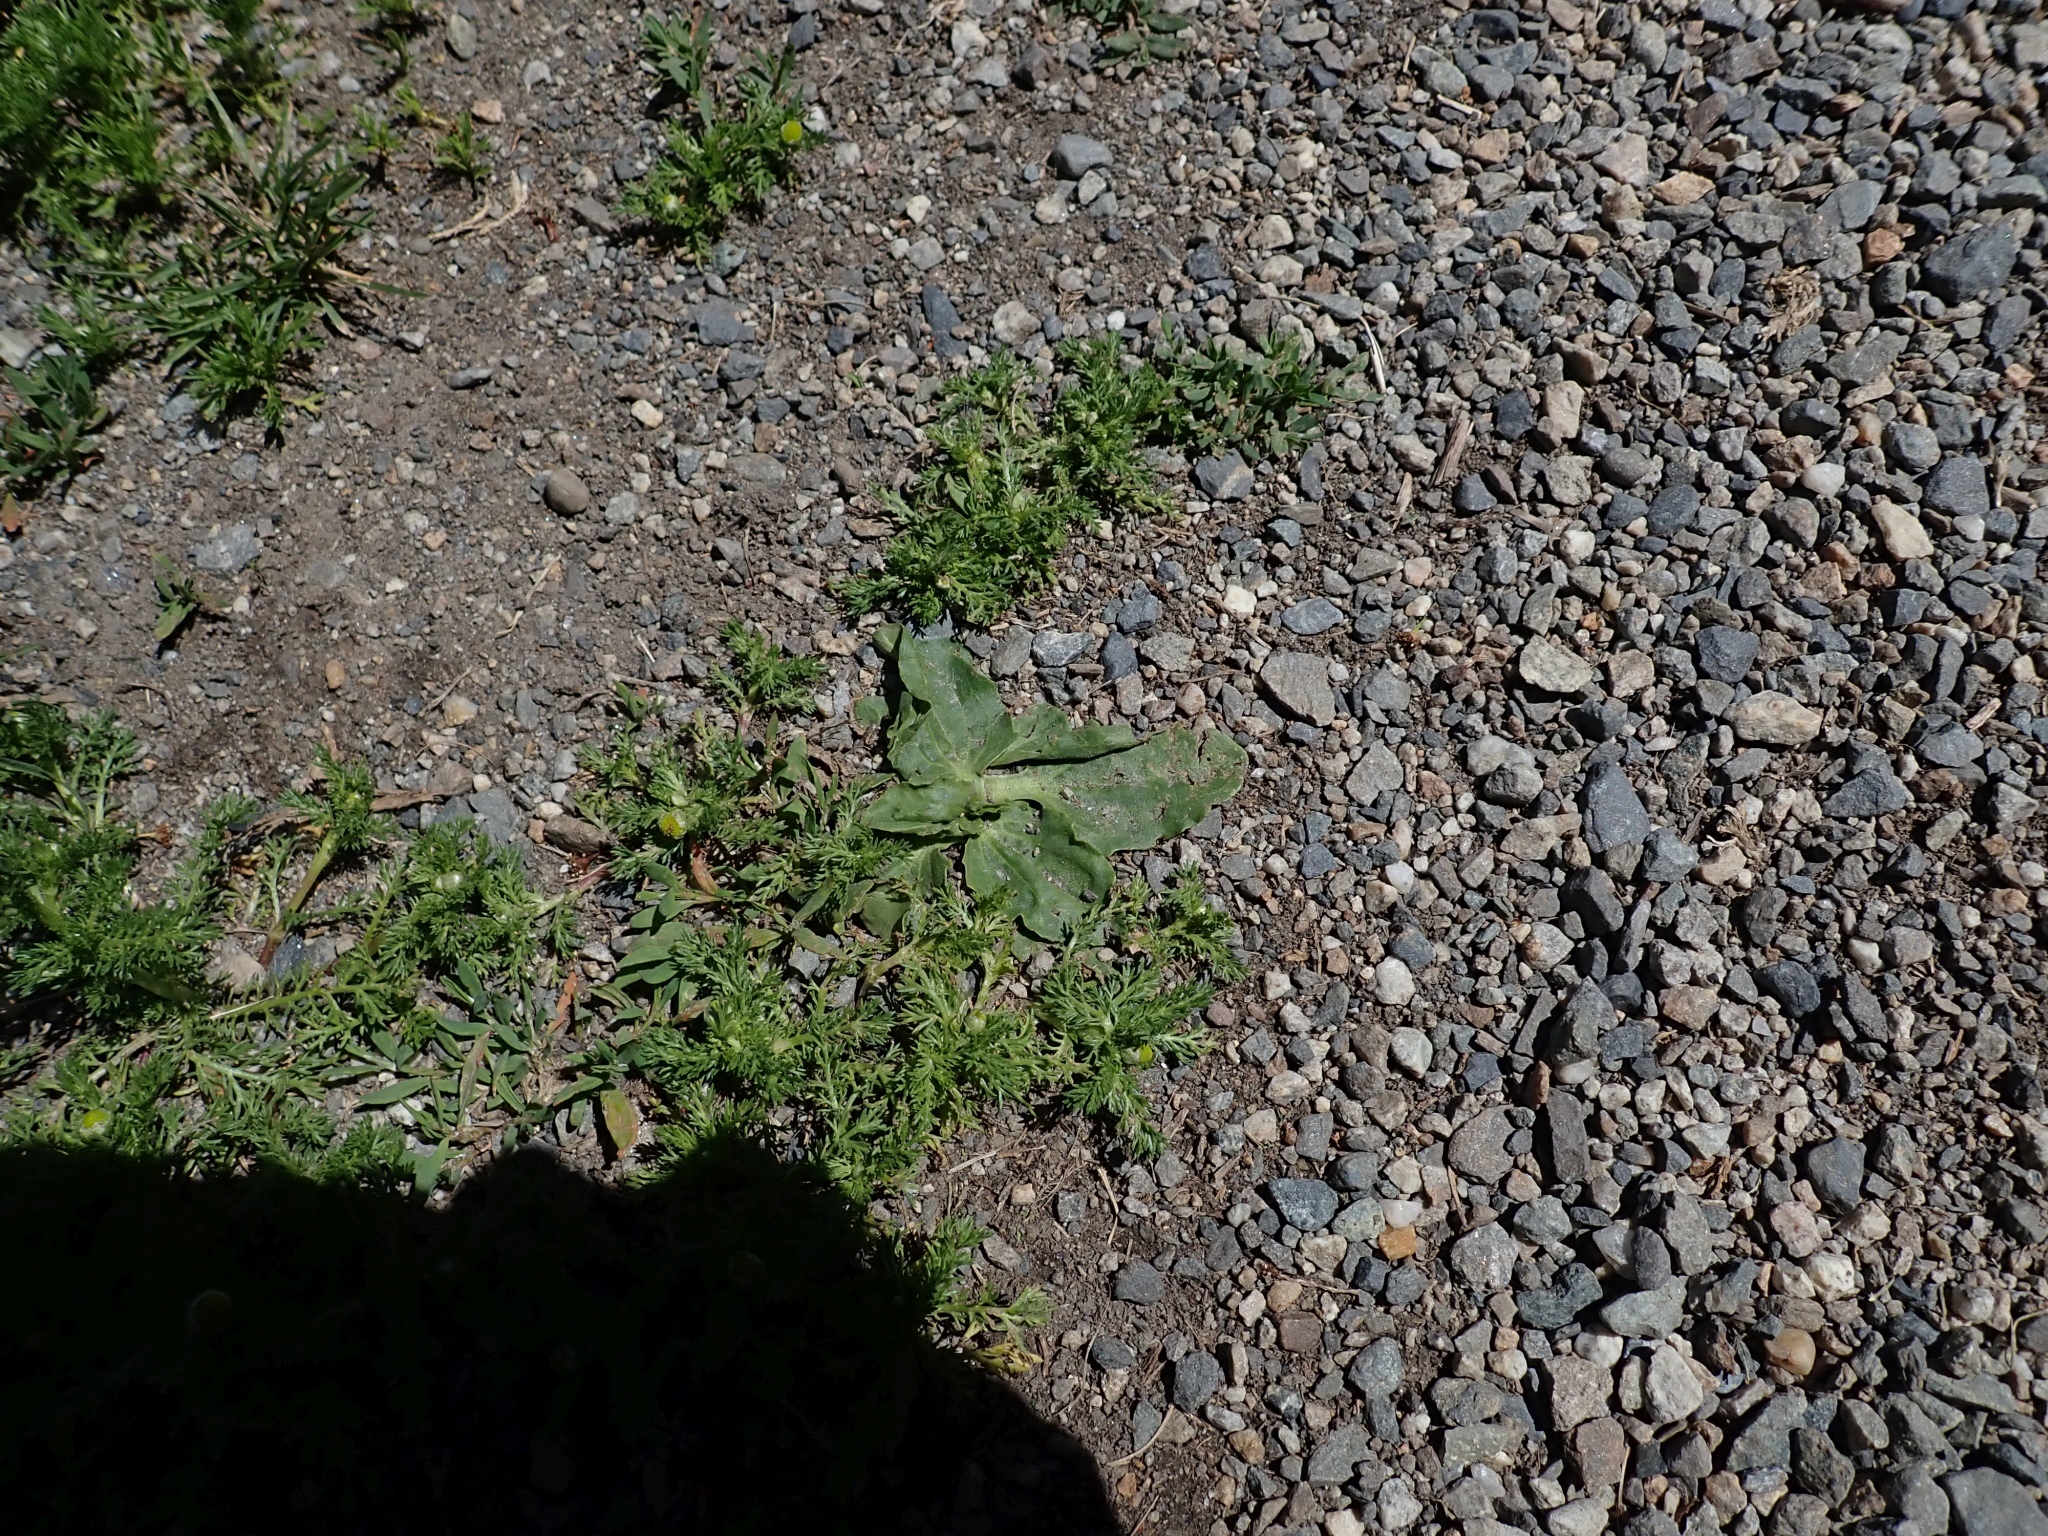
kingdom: Plantae
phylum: Tracheophyta
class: Magnoliopsida
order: Lamiales
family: Plantaginaceae
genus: Plantago
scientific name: Plantago major
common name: Common plantain
